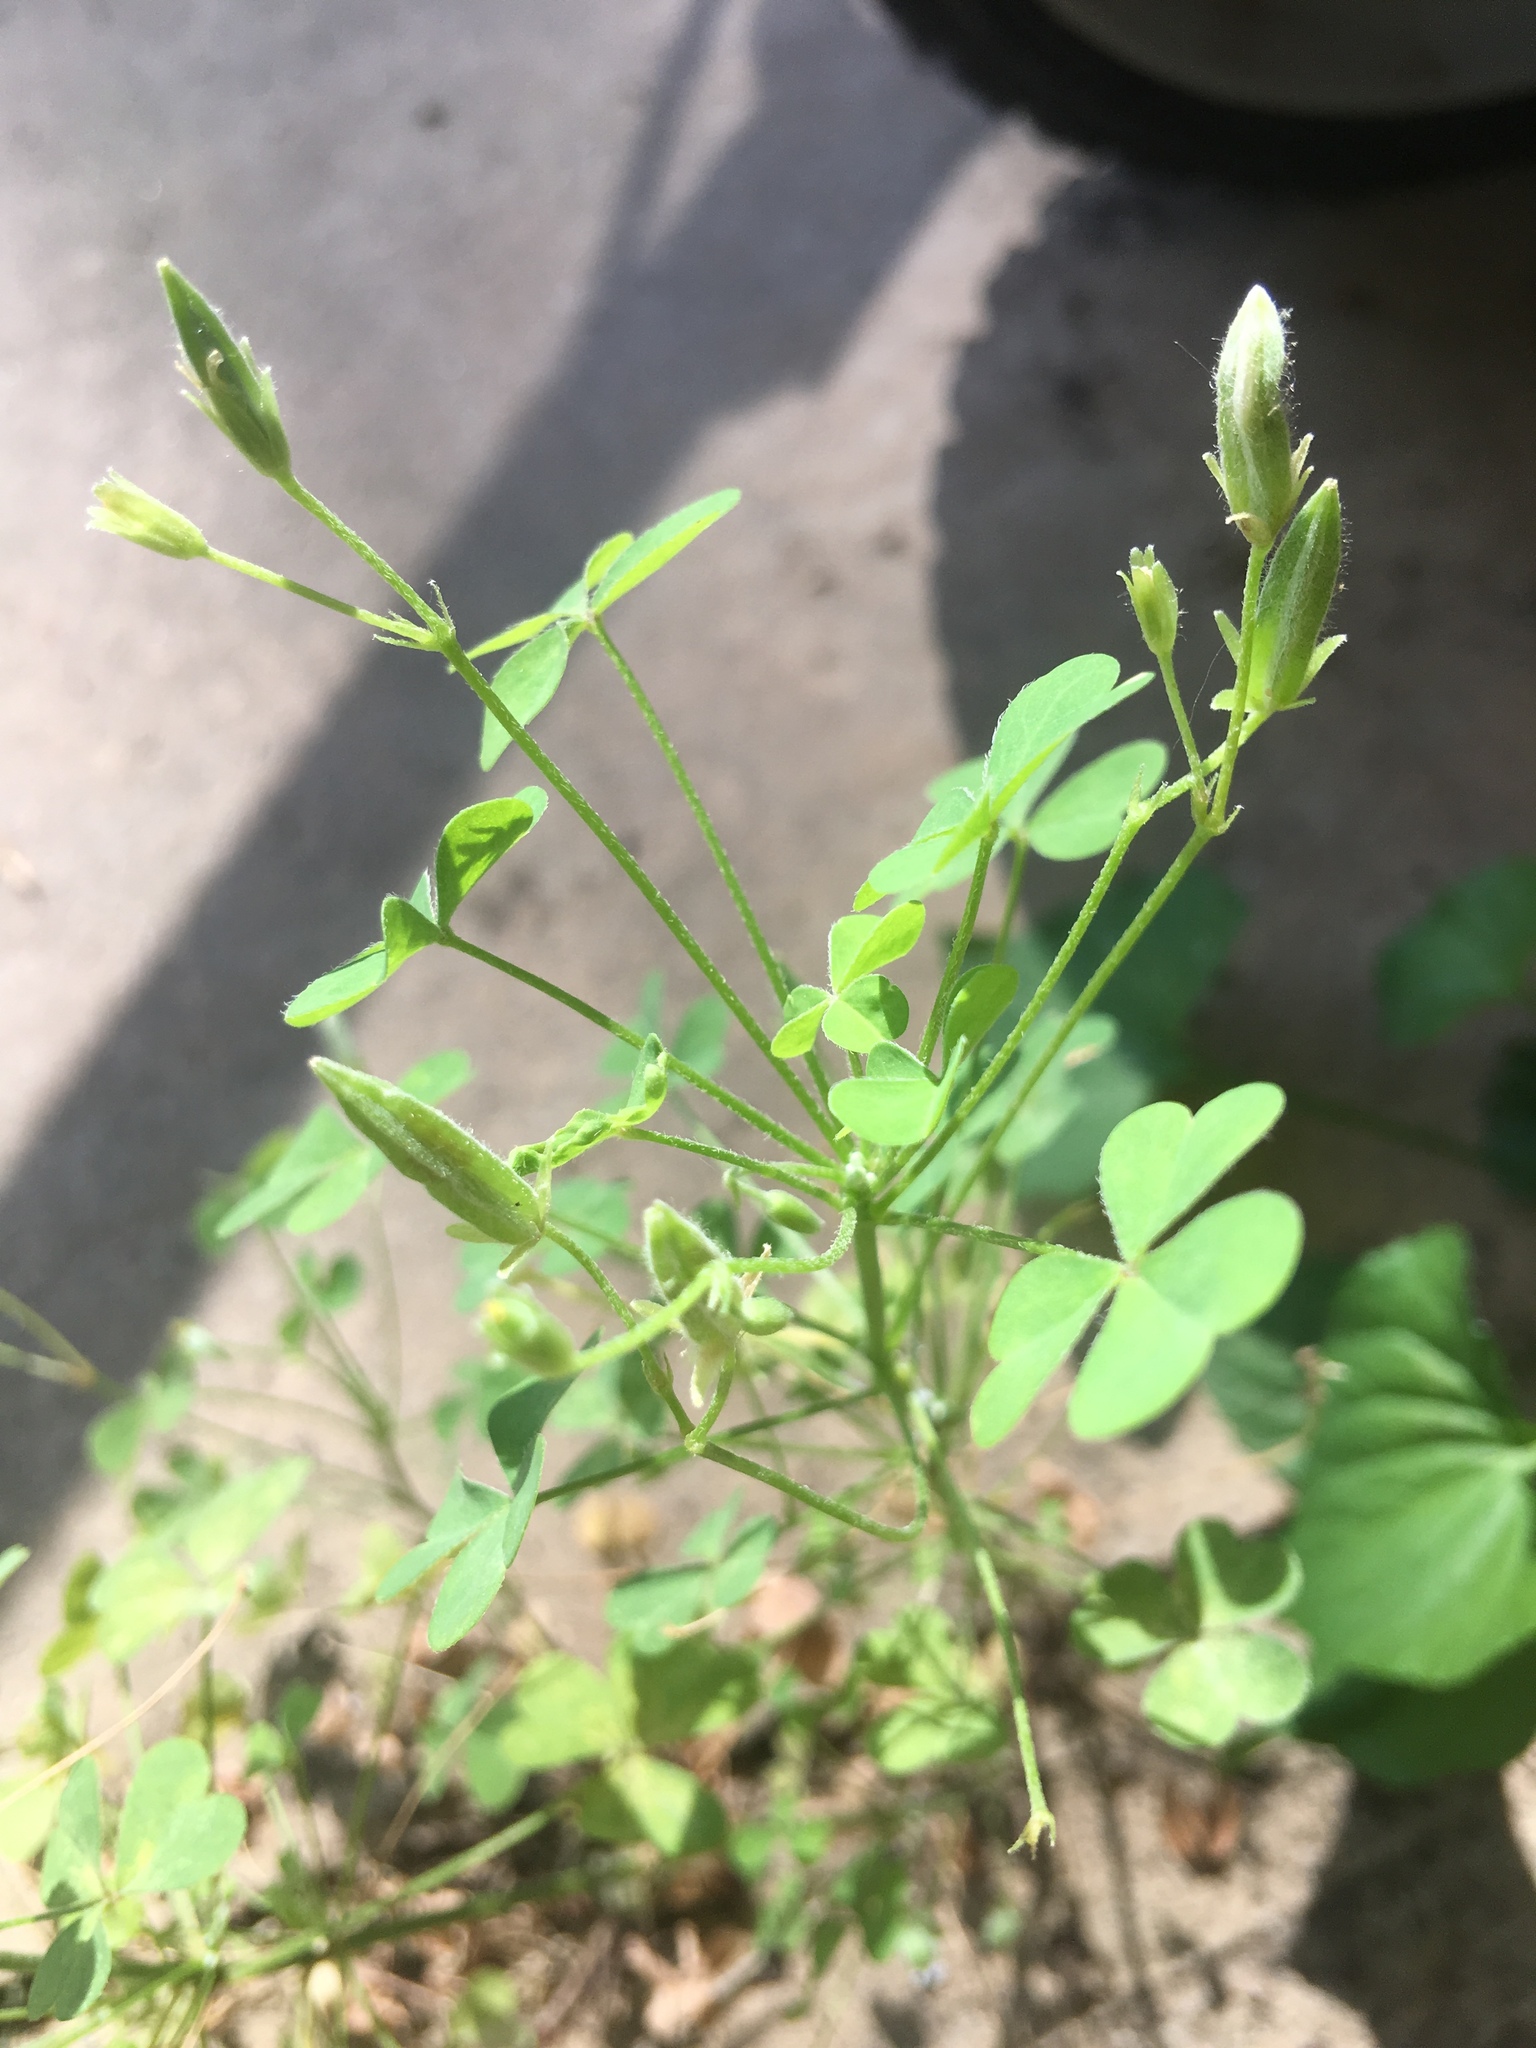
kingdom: Plantae
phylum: Tracheophyta
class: Magnoliopsida
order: Oxalidales
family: Oxalidaceae
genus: Oxalis
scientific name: Oxalis dillenii
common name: Sussex yellow-sorrel
